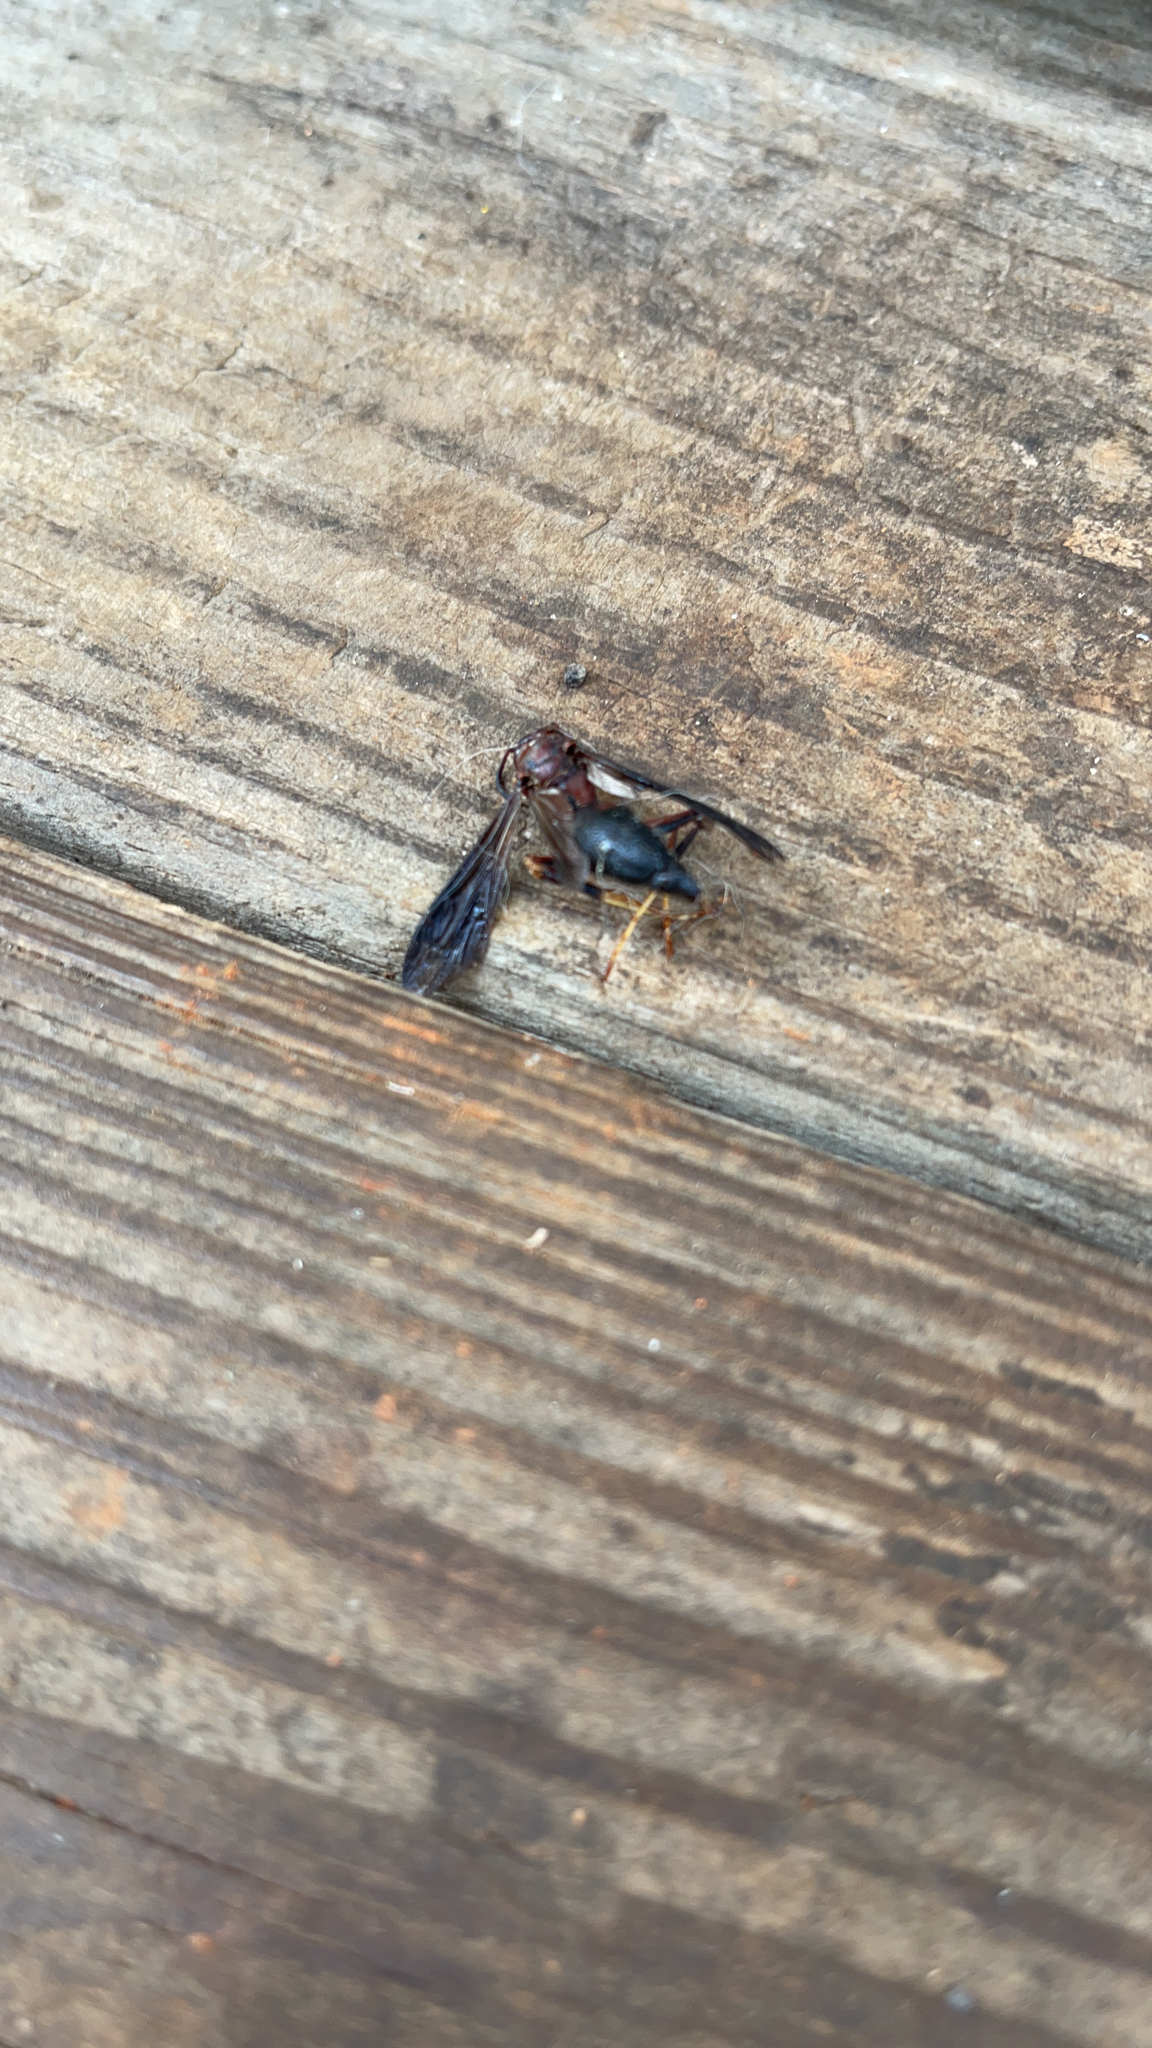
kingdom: Animalia
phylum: Arthropoda
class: Insecta
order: Hymenoptera
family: Eumenidae
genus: Polistes
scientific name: Polistes metricus
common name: Metric paper wasp
